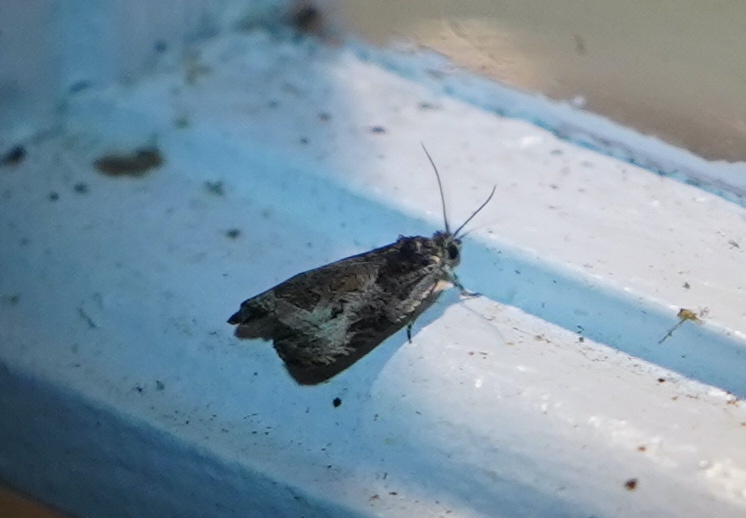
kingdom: Animalia
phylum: Arthropoda
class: Insecta
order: Lepidoptera
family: Tortricidae
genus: Olethreutes
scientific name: Olethreutes connectum
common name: Bunchberry leaffolder moth
